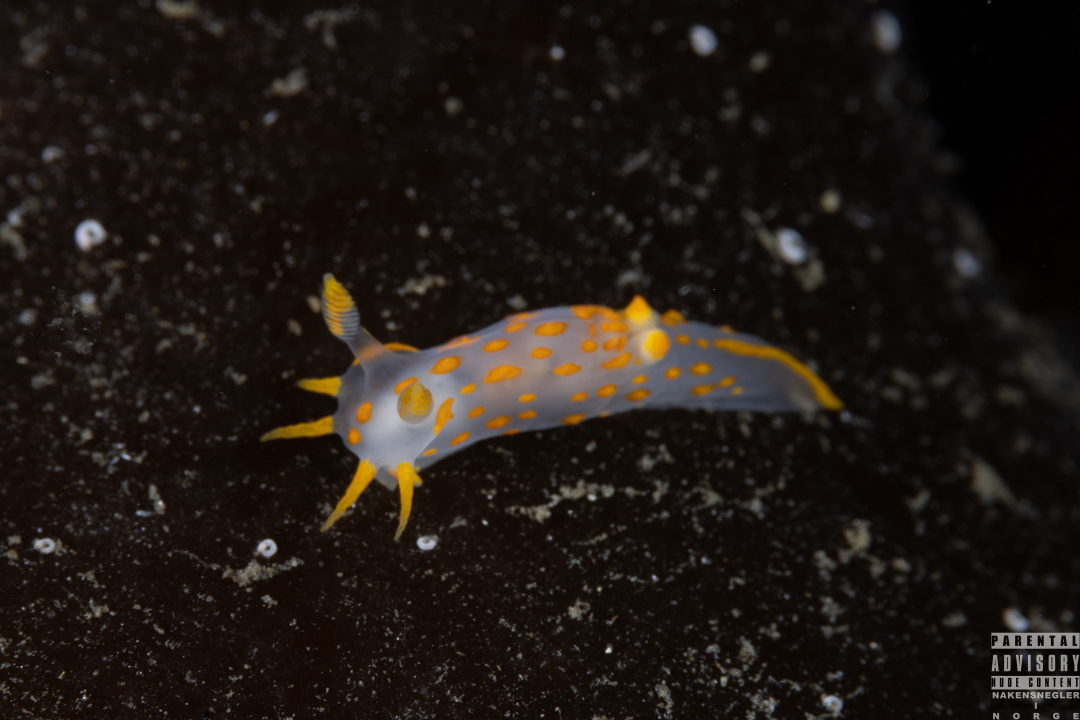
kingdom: Animalia
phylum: Mollusca
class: Gastropoda
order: Nudibranchia
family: Polyceridae
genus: Polycera
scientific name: Polycera quadrilineata
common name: Four-striped polycera
